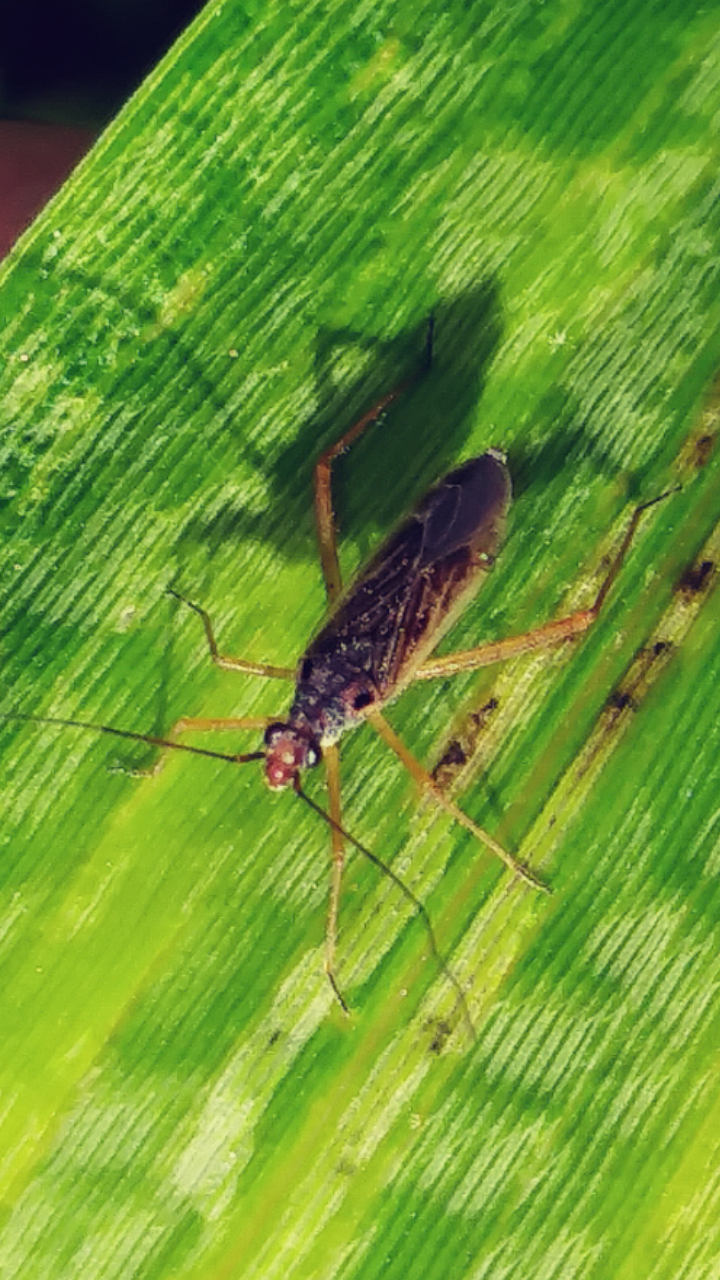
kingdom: Animalia
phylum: Arthropoda
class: Insecta
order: Hemiptera
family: Miridae
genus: Collaria
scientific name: Collaria oculata
